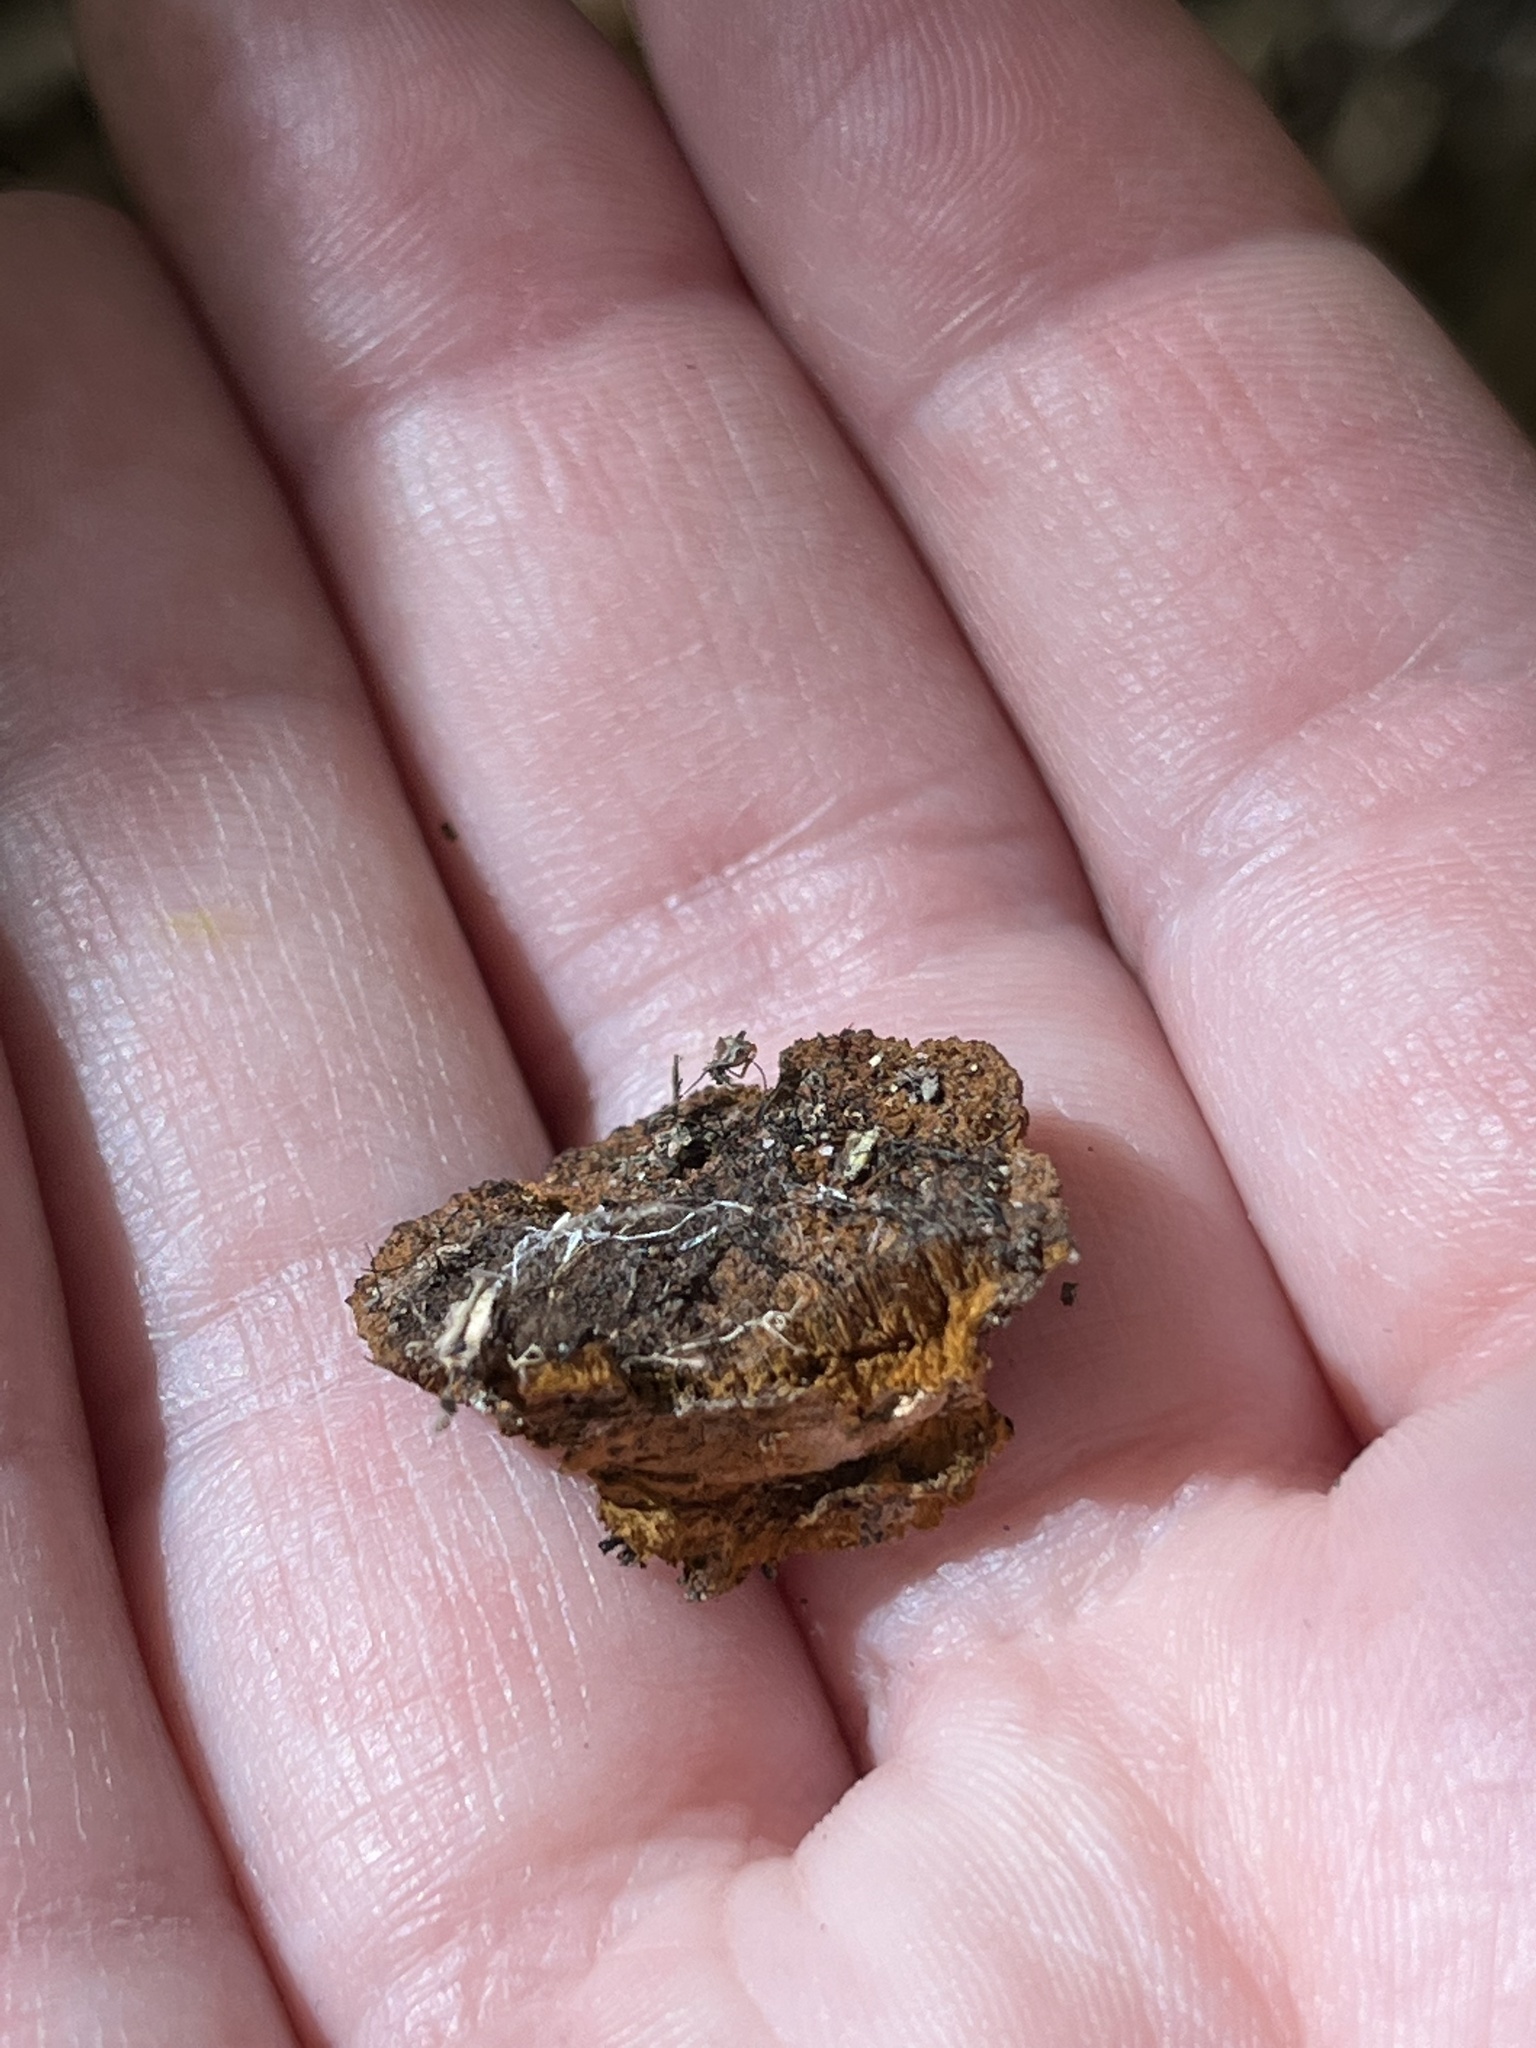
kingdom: Fungi
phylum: Basidiomycota
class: Agaricomycetes
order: Hymenochaetales
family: Hymenochaetaceae
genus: Phellinus
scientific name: Phellinus gilvus
